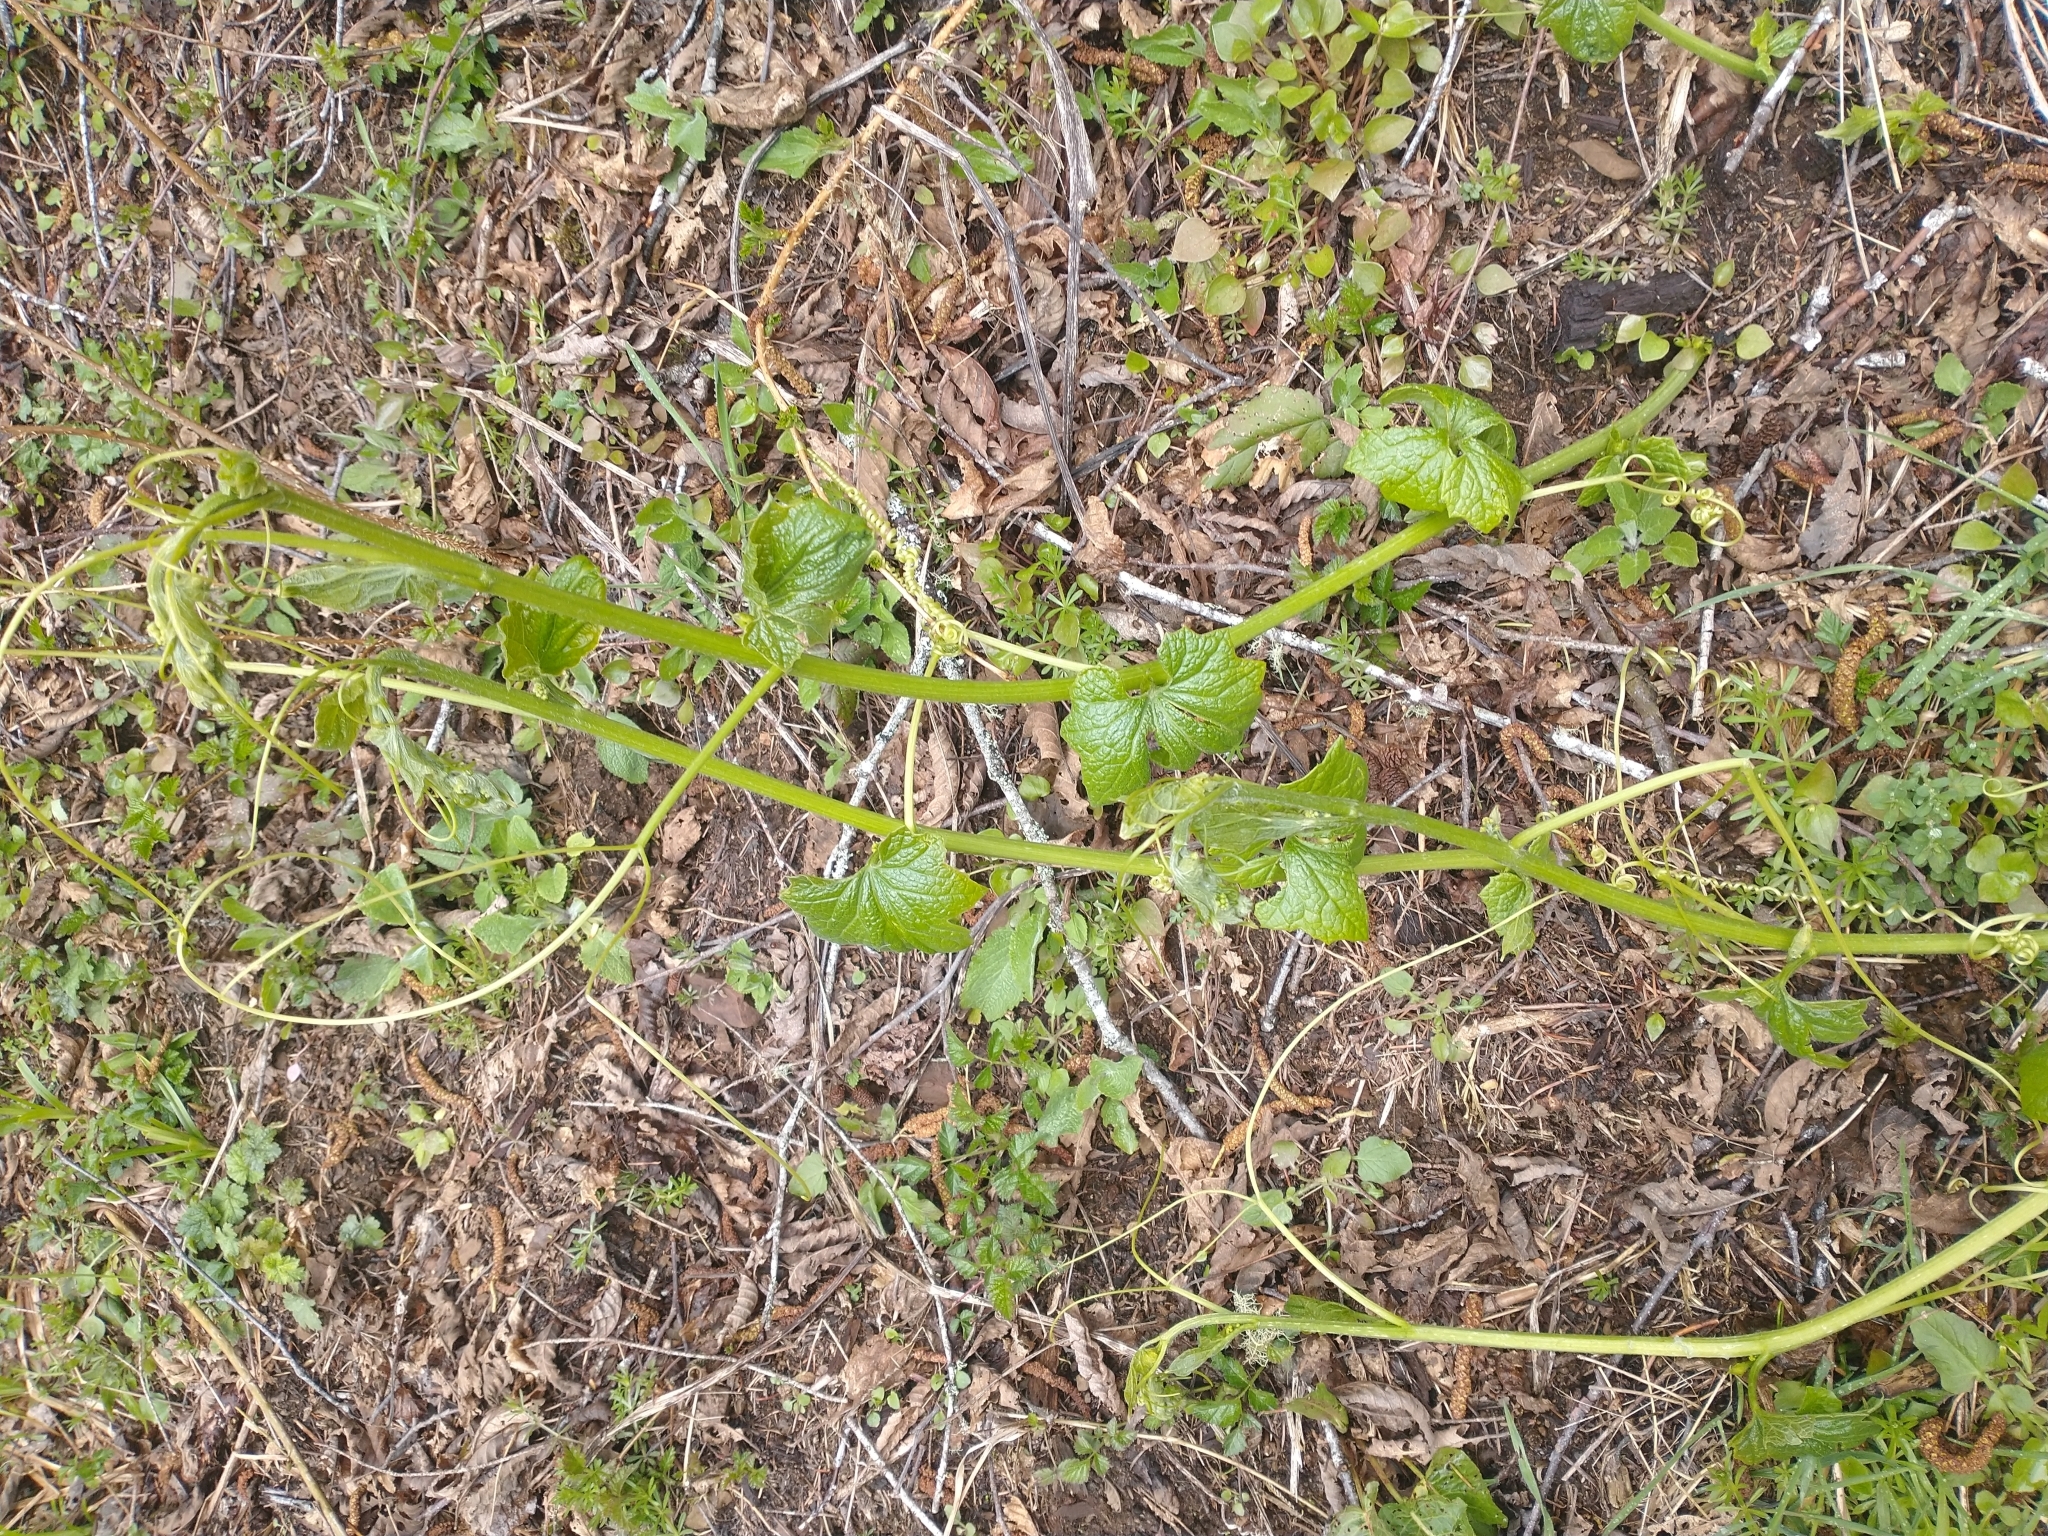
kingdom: Plantae
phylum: Tracheophyta
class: Magnoliopsida
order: Cucurbitales
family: Cucurbitaceae
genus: Marah
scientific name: Marah oregana
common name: Coastal manroot
